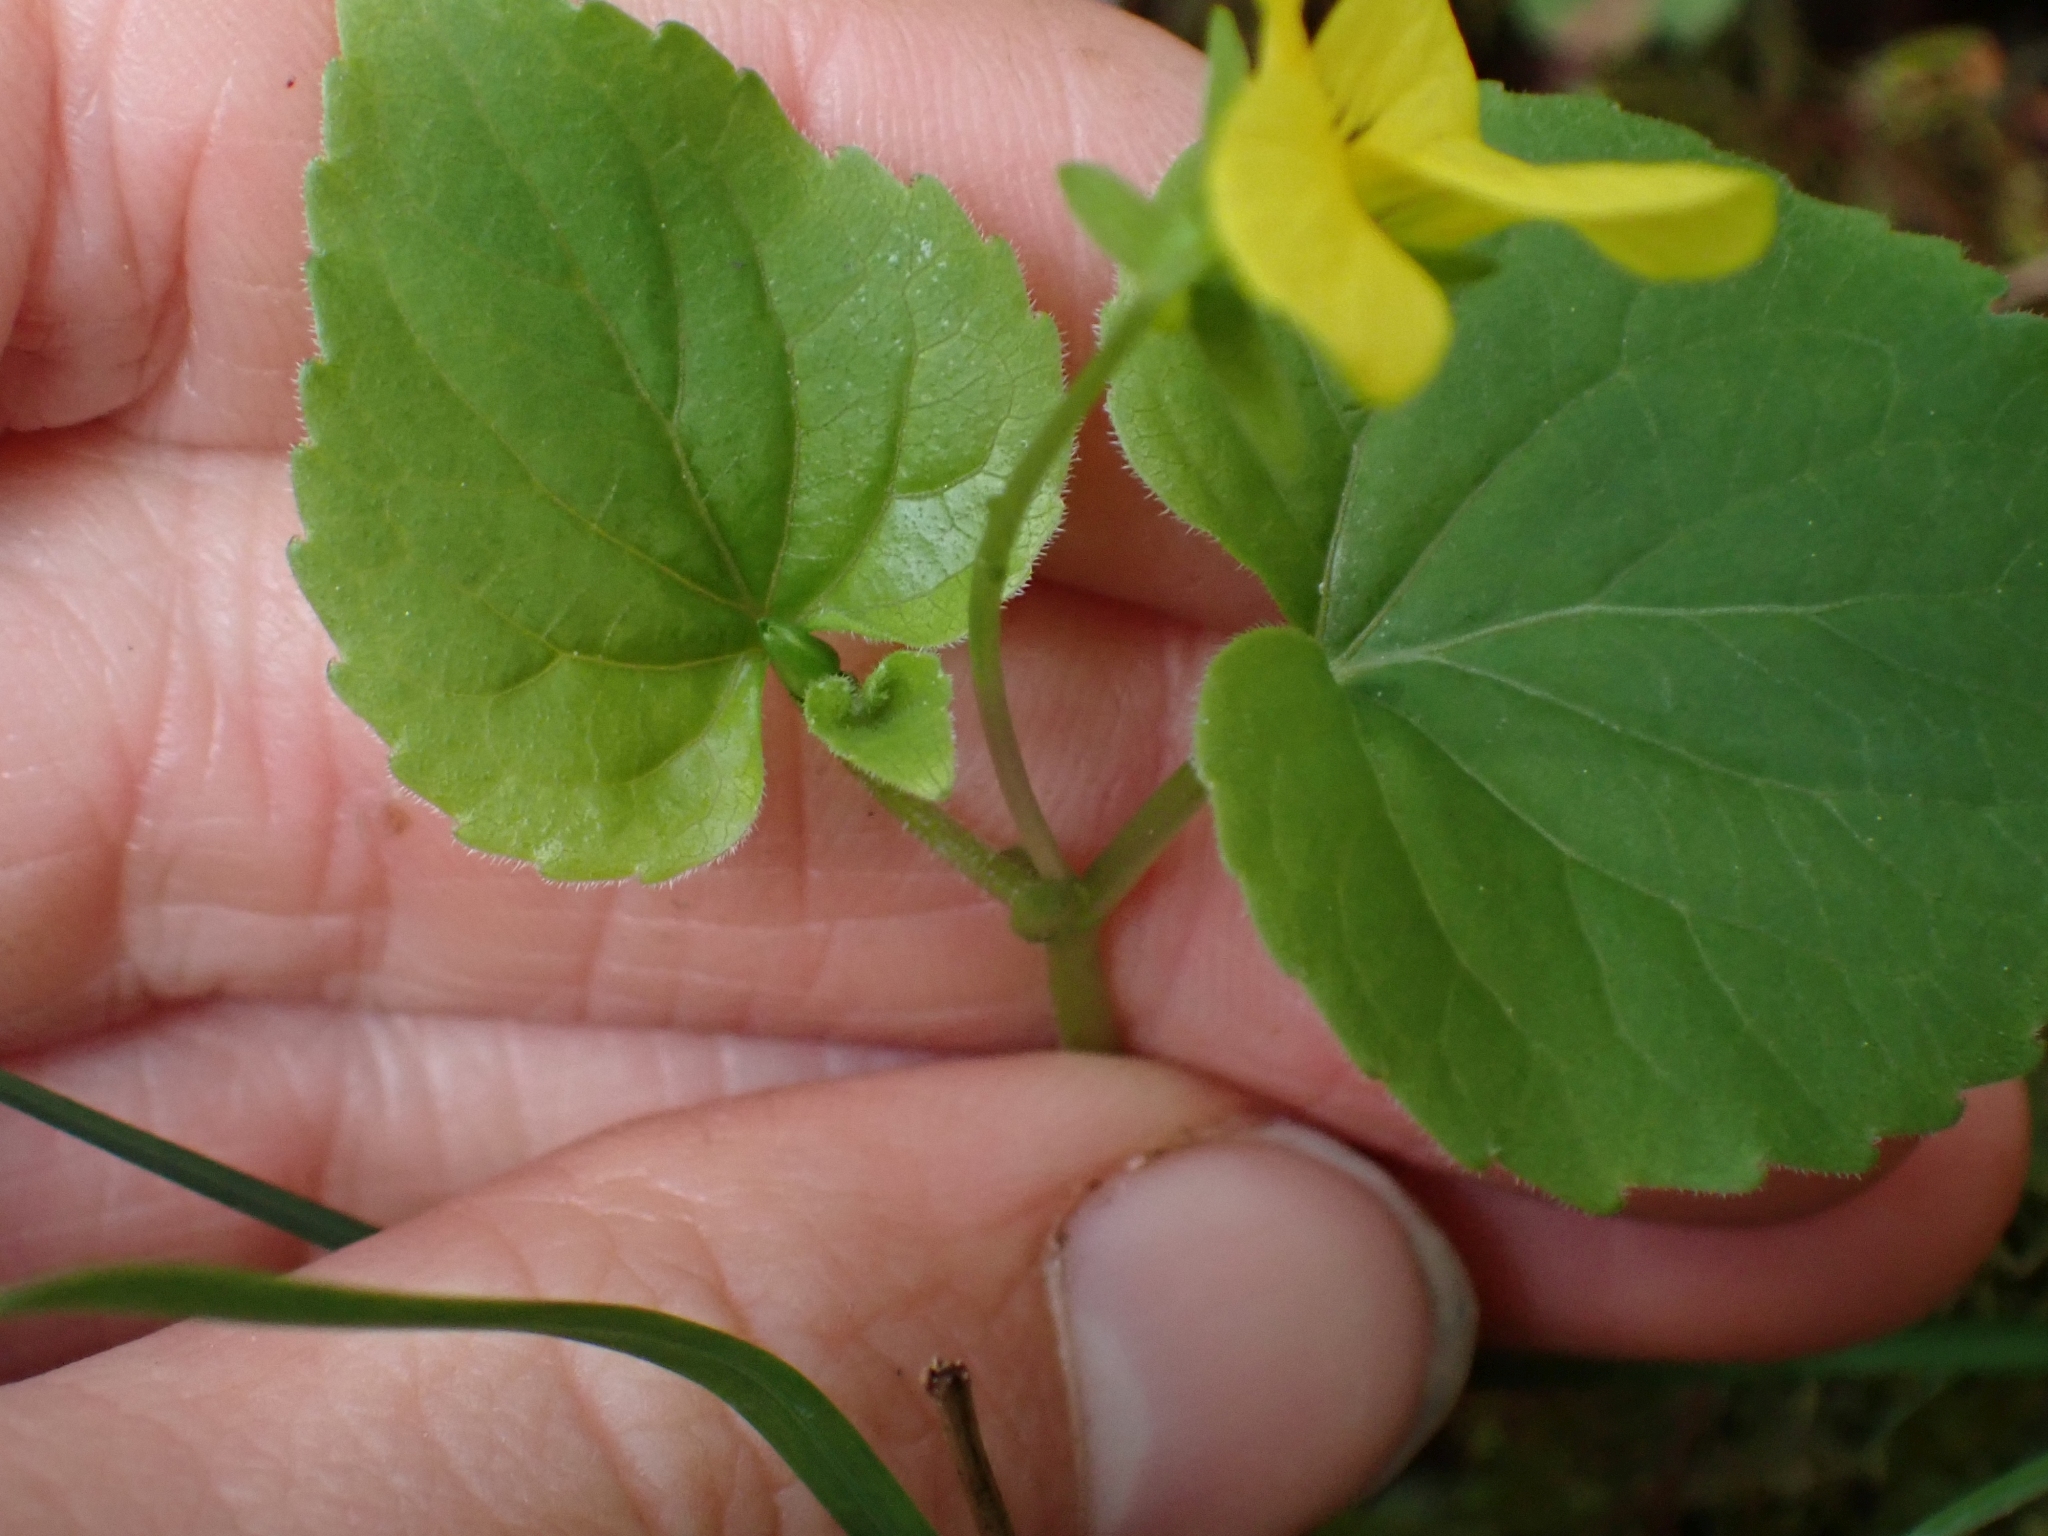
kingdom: Plantae
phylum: Tracheophyta
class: Magnoliopsida
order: Malpighiales
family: Violaceae
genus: Viola
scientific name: Viola glabella
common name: Stream violet
